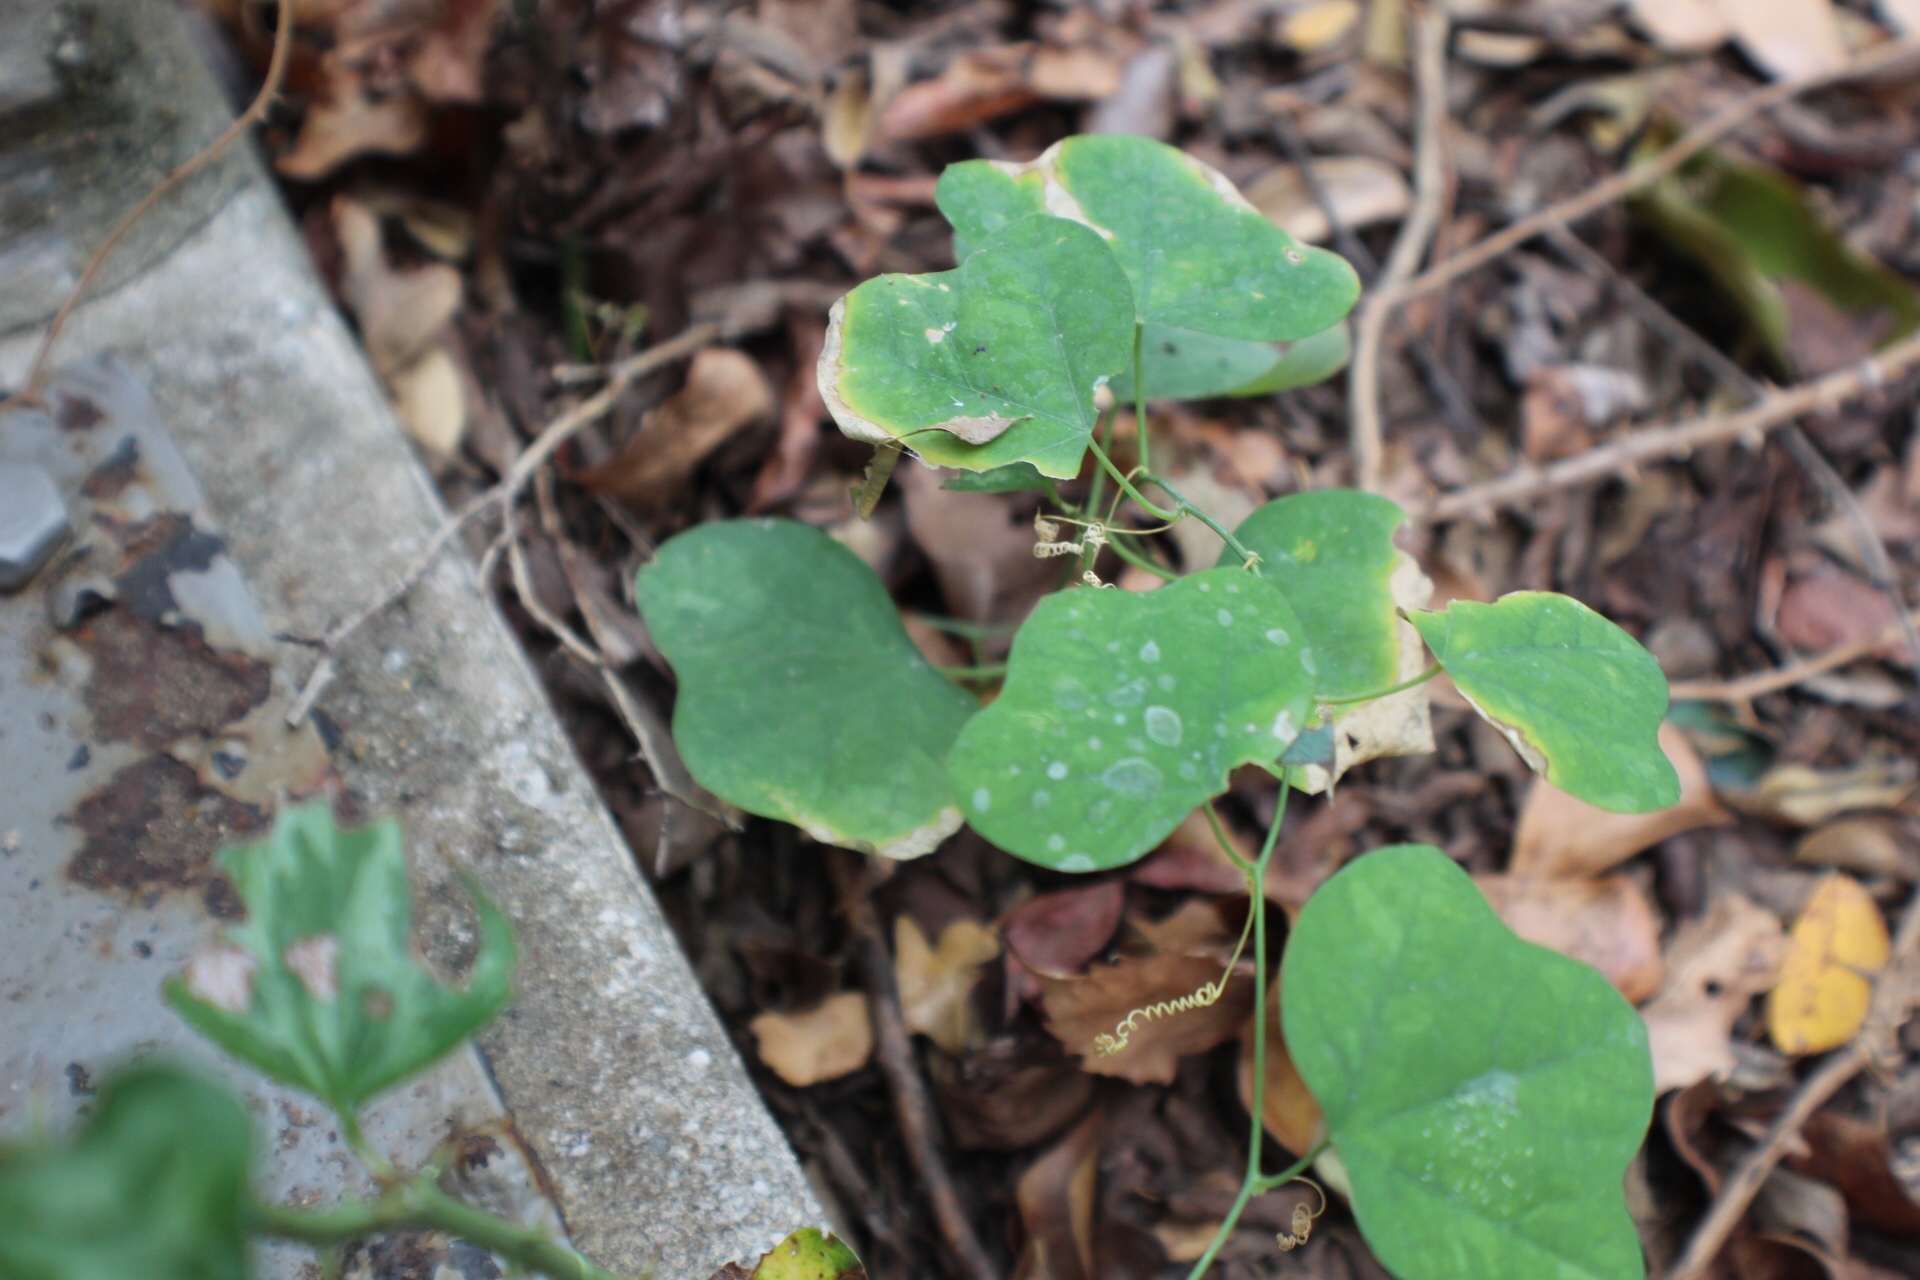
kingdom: Plantae
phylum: Tracheophyta
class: Magnoliopsida
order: Malpighiales
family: Passifloraceae
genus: Passiflora
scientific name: Passiflora lutea
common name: Yellow passionflower
